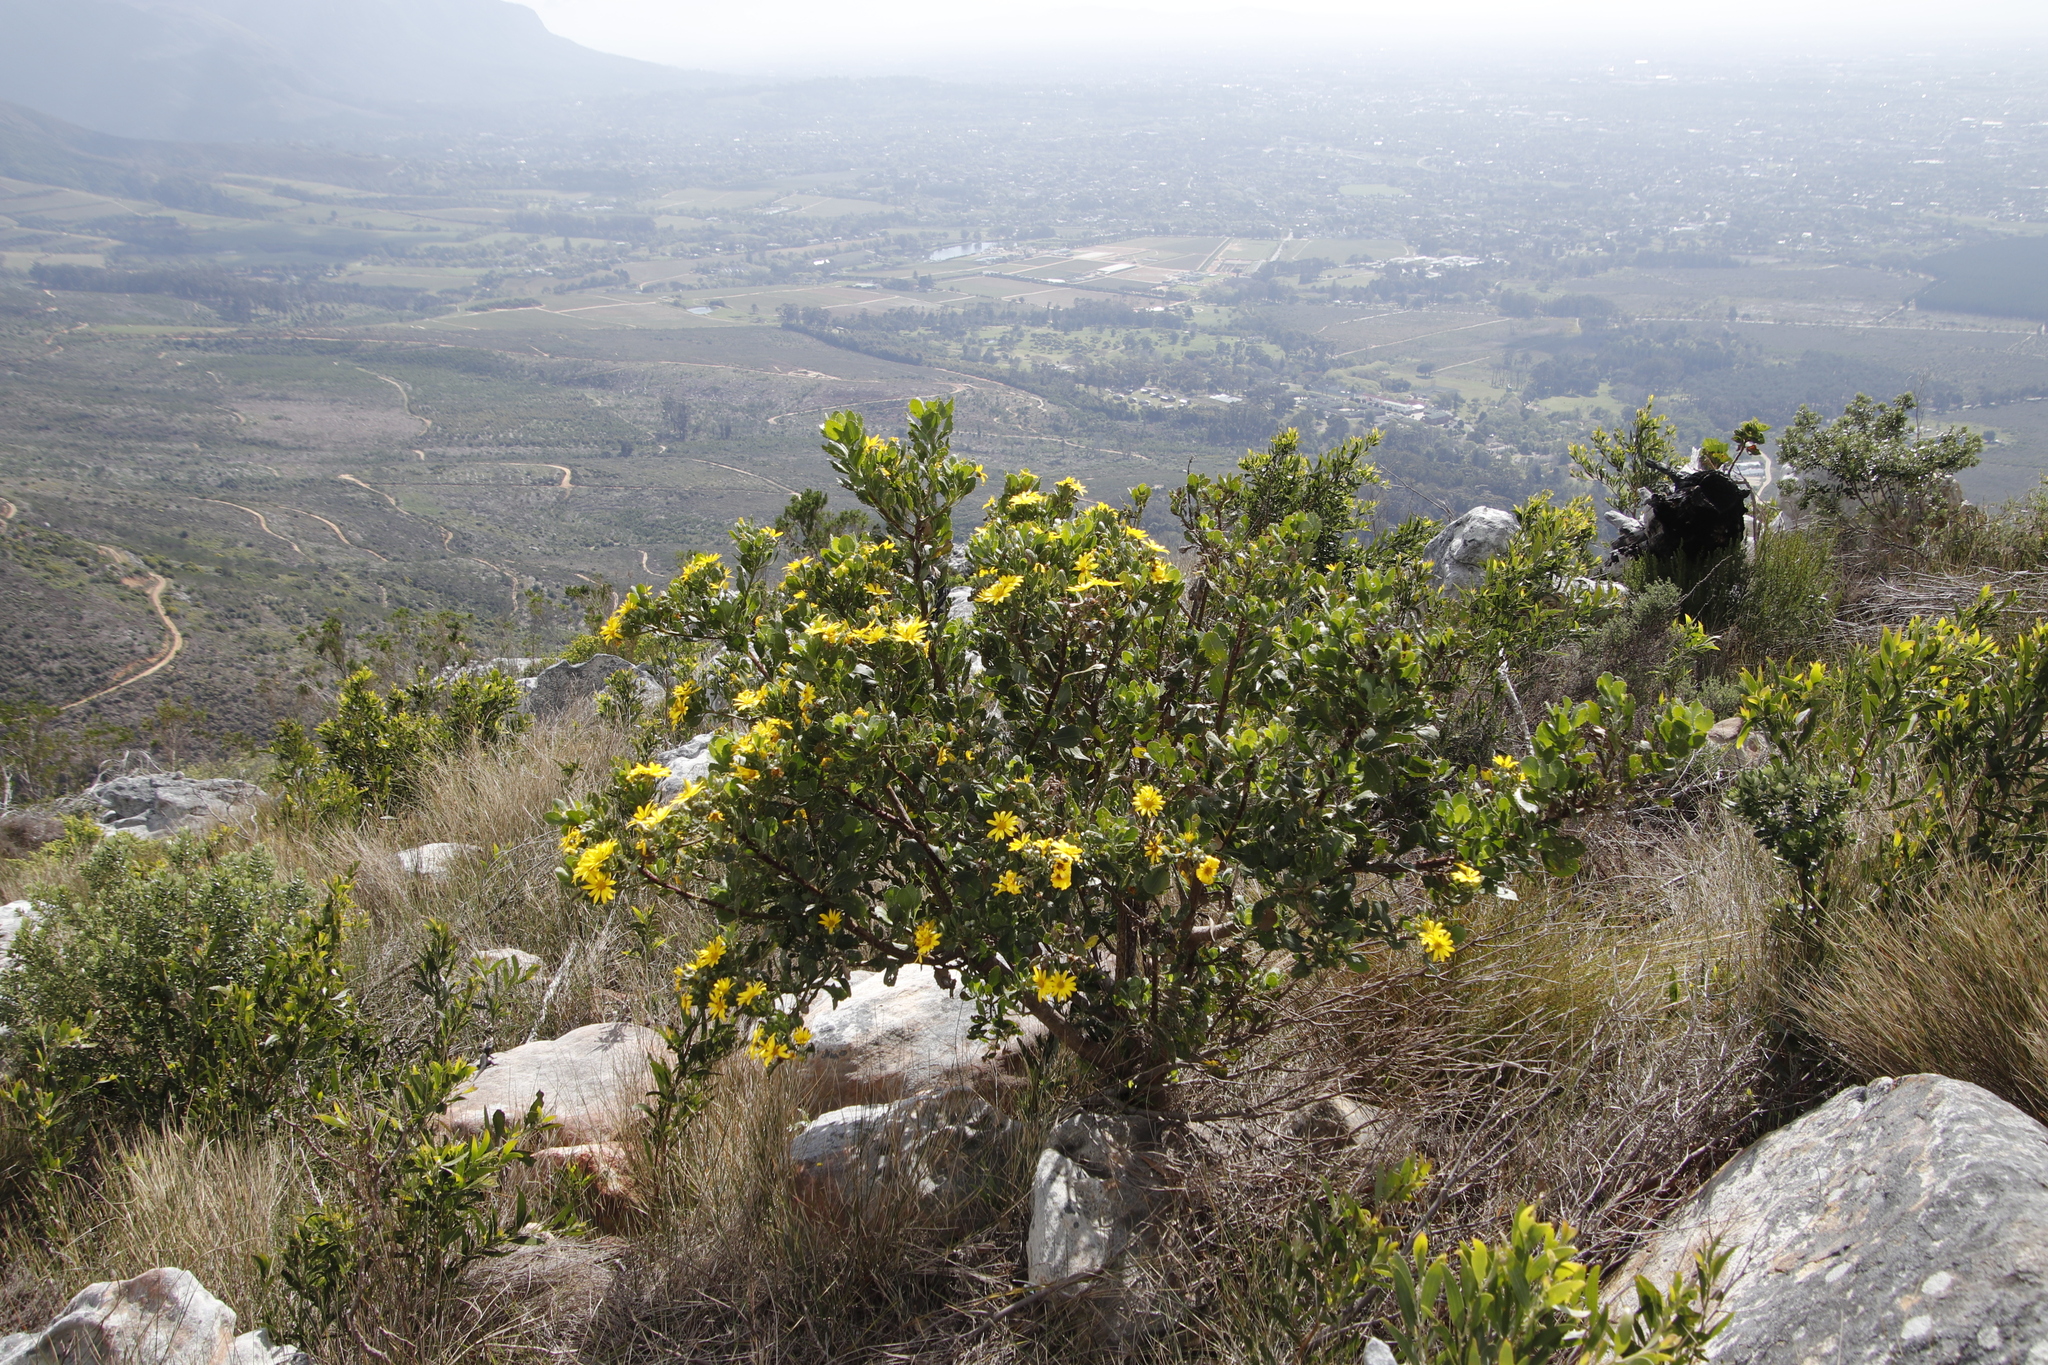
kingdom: Plantae
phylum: Tracheophyta
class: Magnoliopsida
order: Asterales
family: Asteraceae
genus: Osteospermum
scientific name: Osteospermum moniliferum
